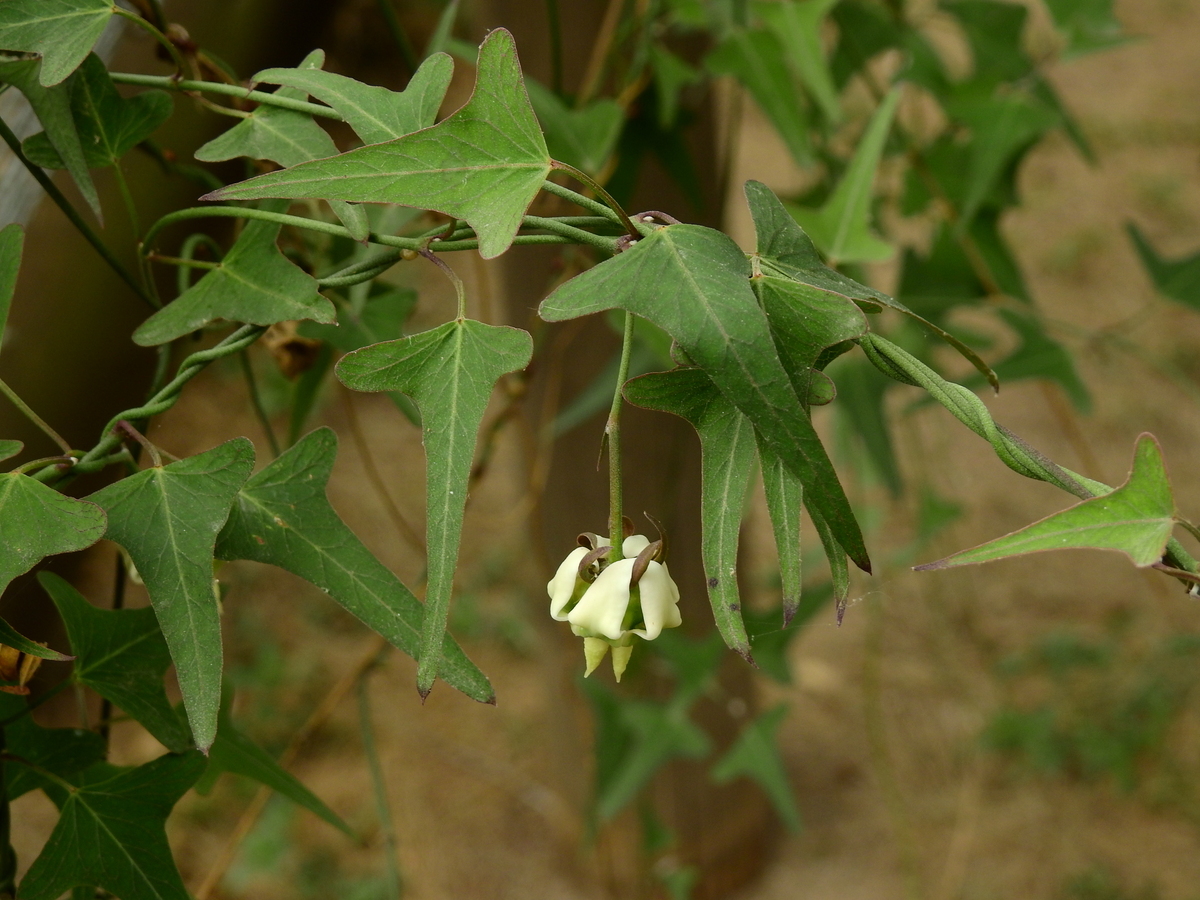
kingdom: Plantae
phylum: Tracheophyta
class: Magnoliopsida
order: Gentianales
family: Apocynaceae
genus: Araujia
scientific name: Araujia angustifolia
